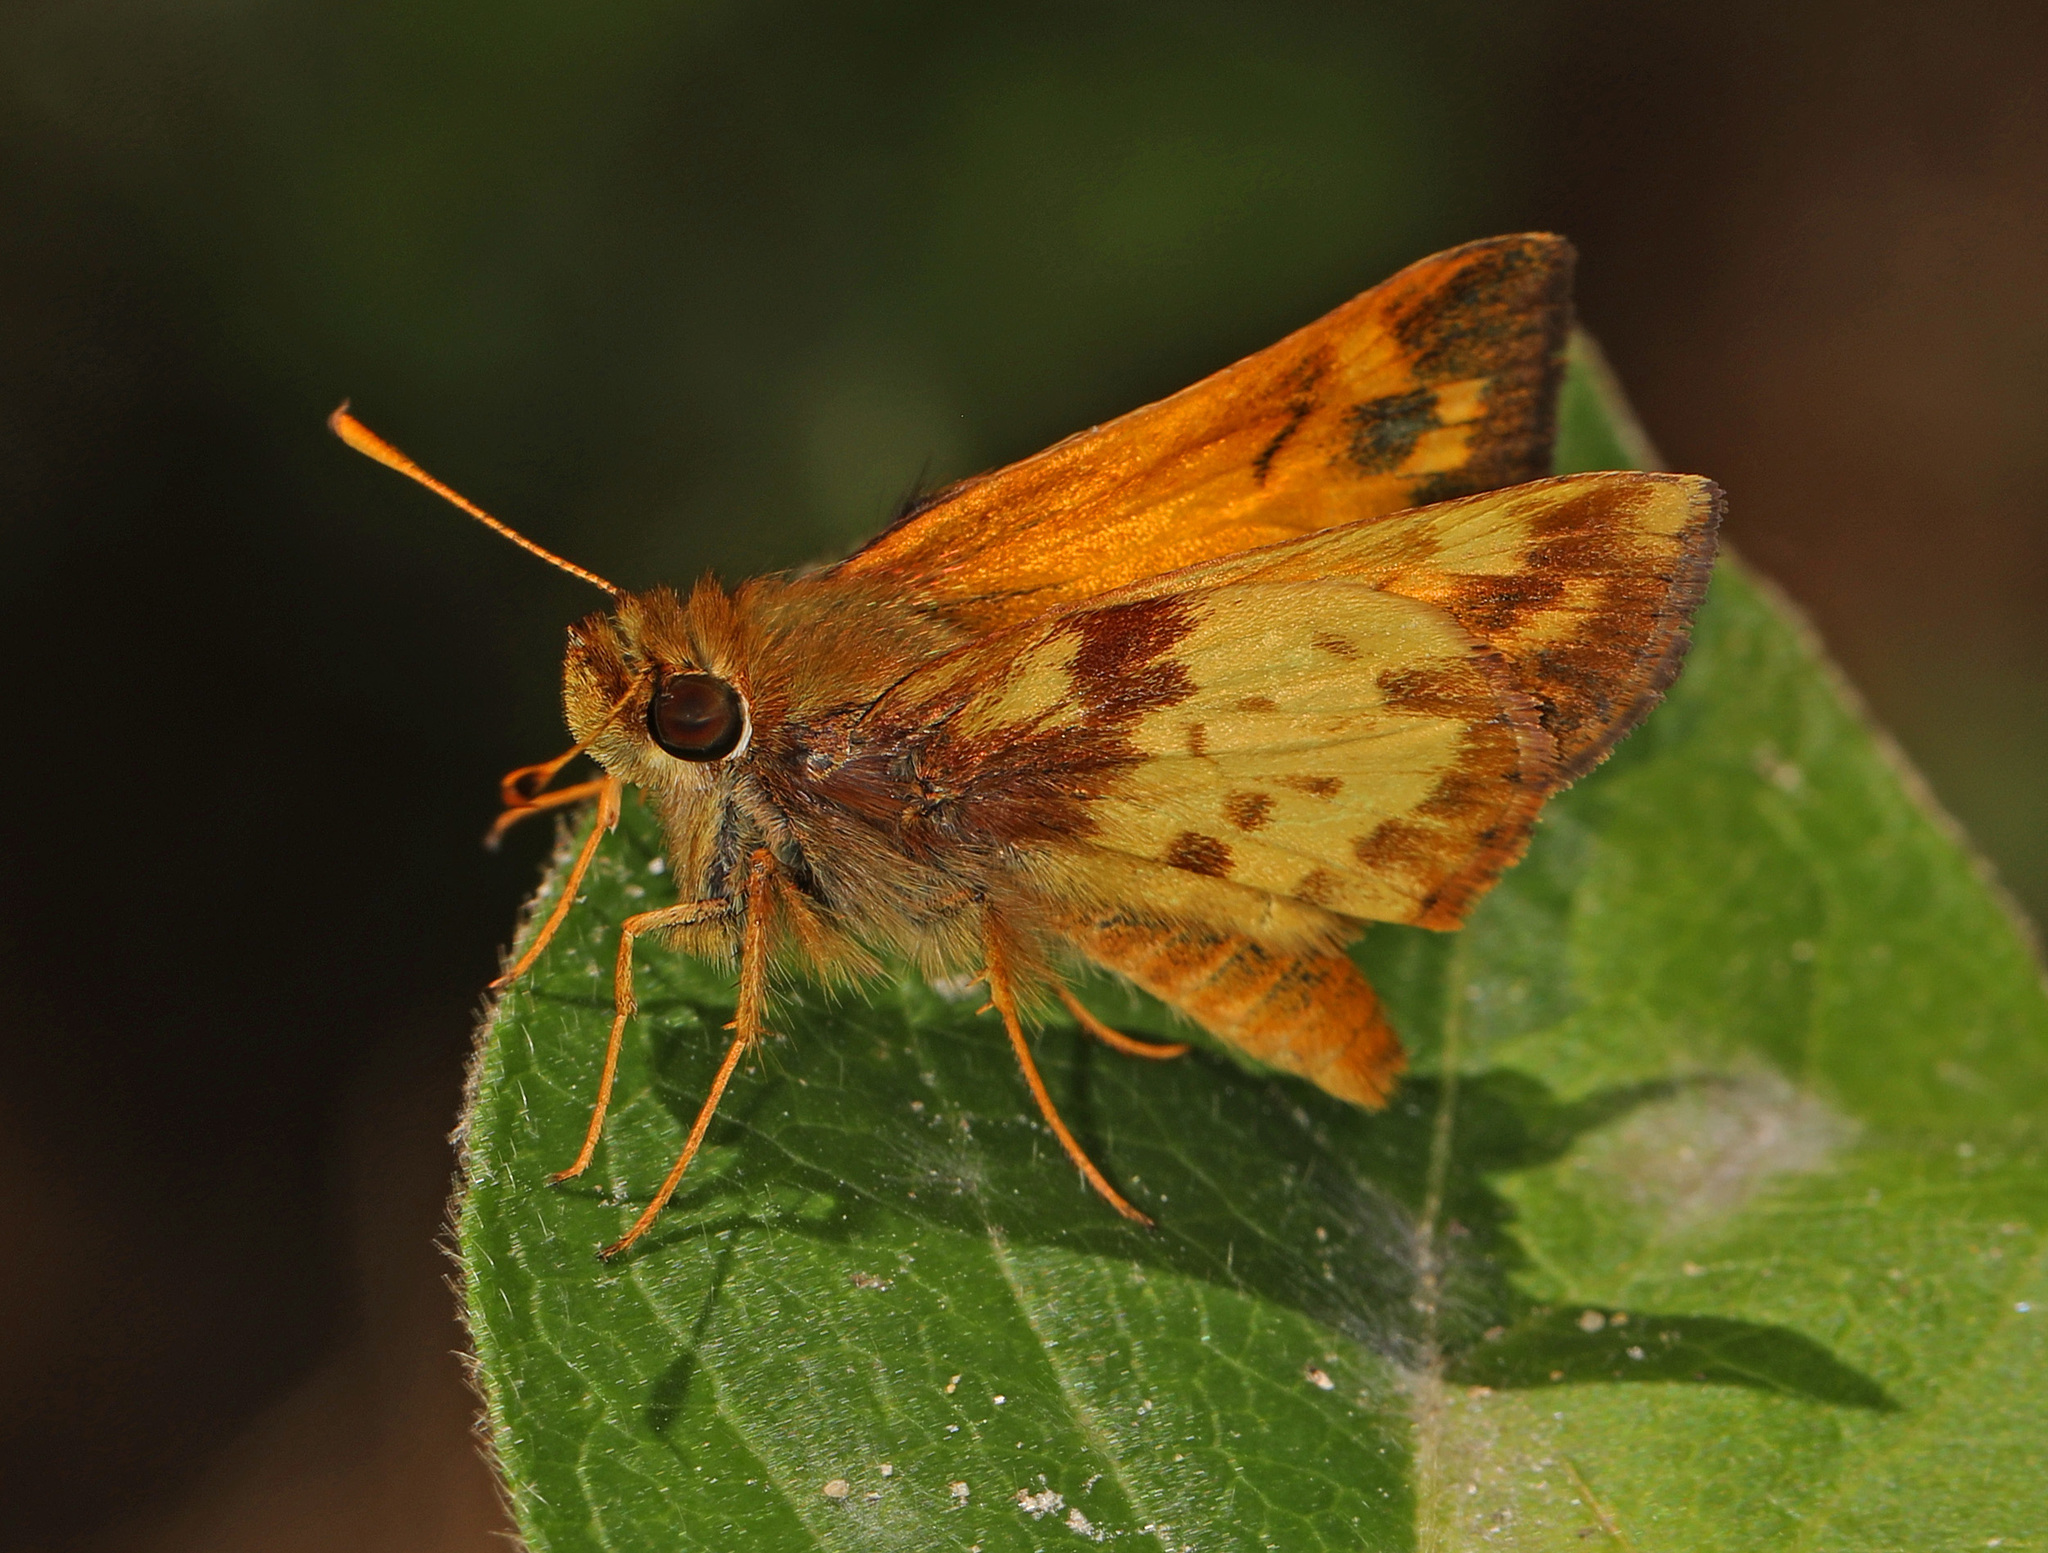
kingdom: Animalia
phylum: Arthropoda
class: Insecta
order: Lepidoptera
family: Hesperiidae
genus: Lon
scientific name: Lon zabulon
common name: Zabulon skipper
